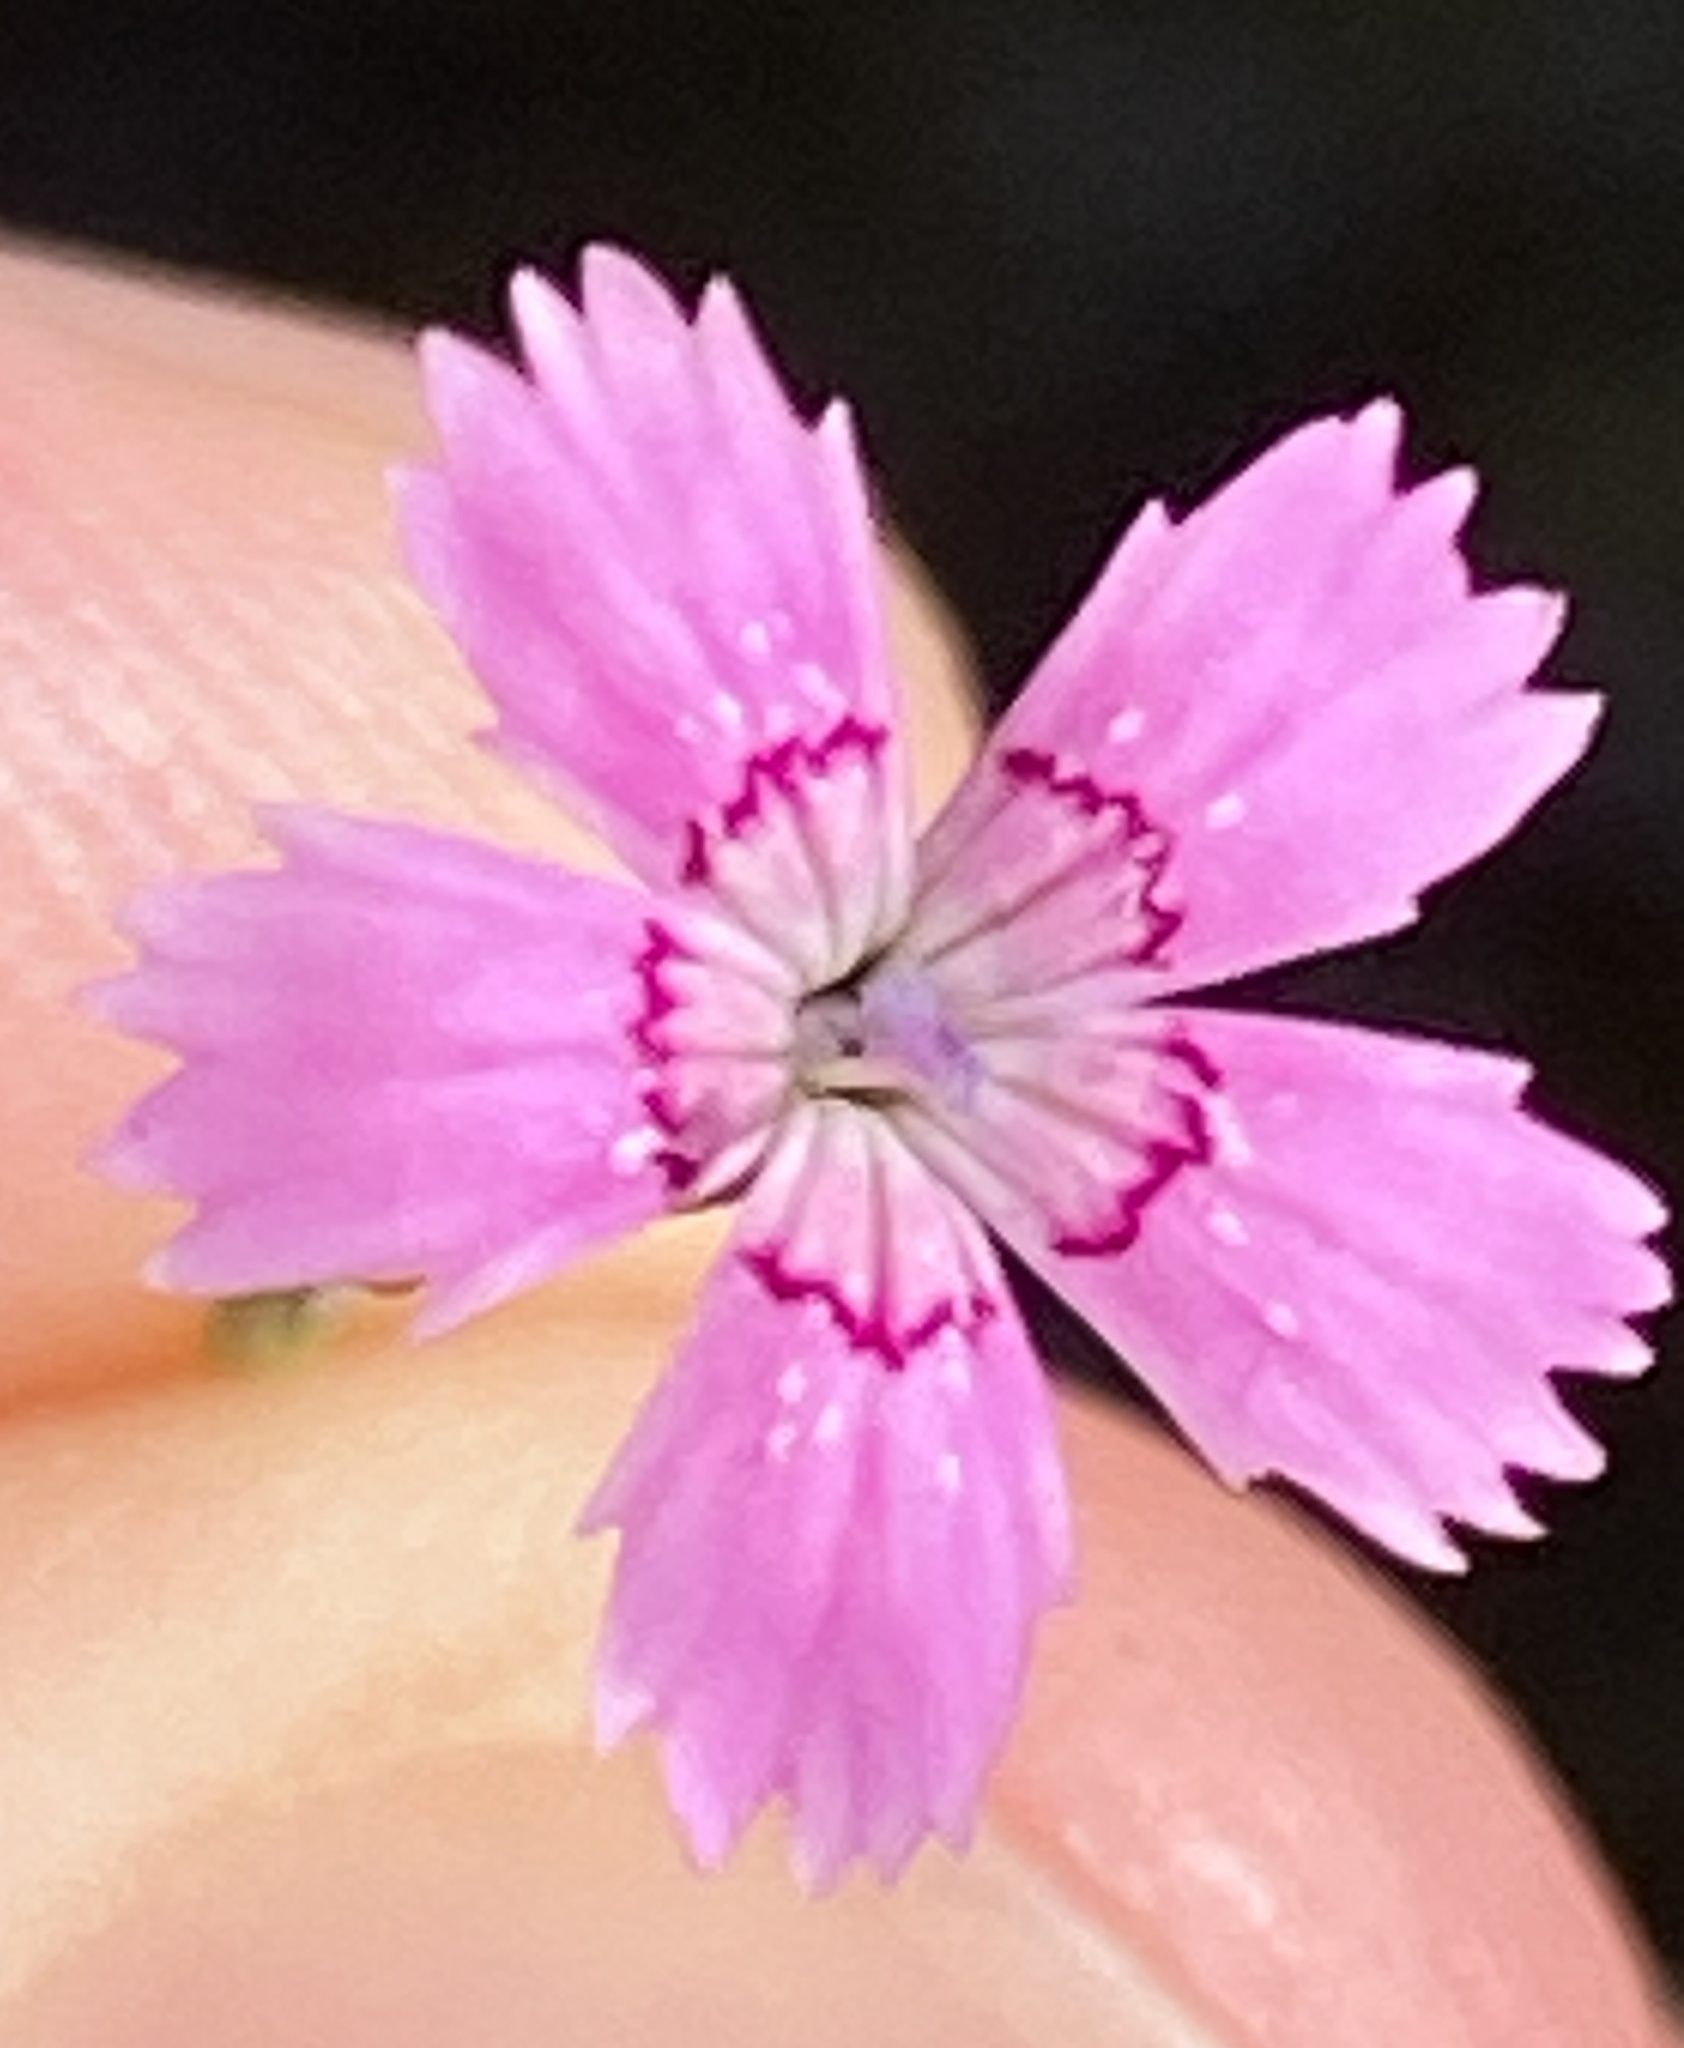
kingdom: Plantae
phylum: Tracheophyta
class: Magnoliopsida
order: Caryophyllales
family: Caryophyllaceae
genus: Dianthus
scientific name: Dianthus deltoides
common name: Maiden pink
